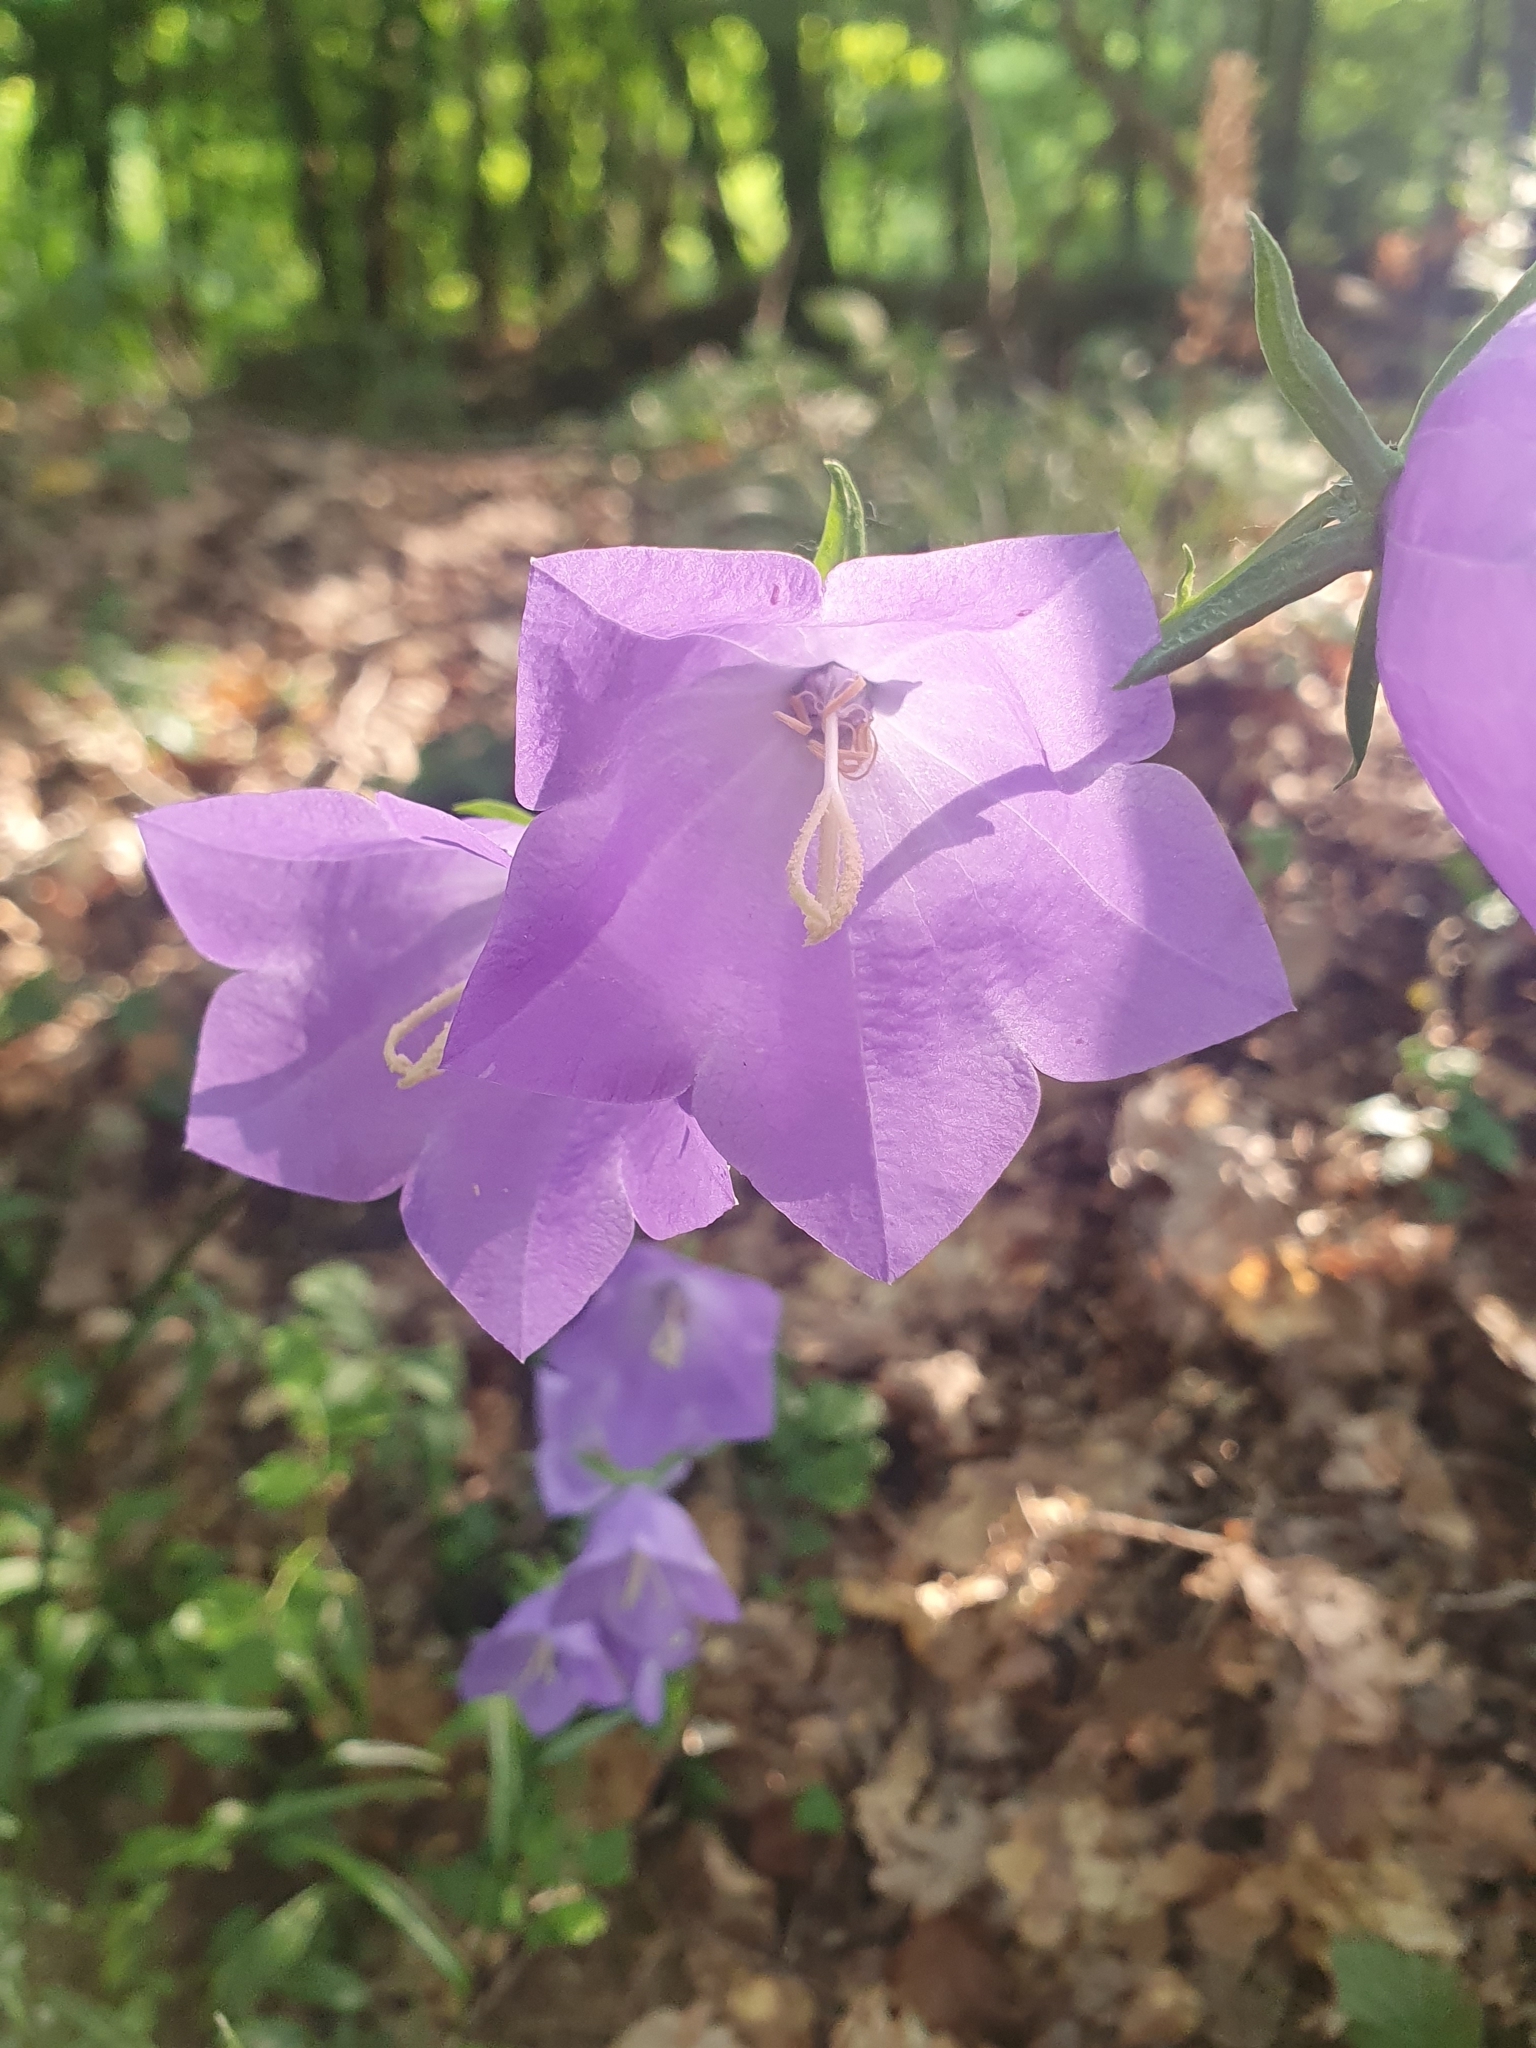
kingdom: Plantae
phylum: Tracheophyta
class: Magnoliopsida
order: Asterales
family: Campanulaceae
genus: Campanula
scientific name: Campanula persicifolia
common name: Peach-leaved bellflower
